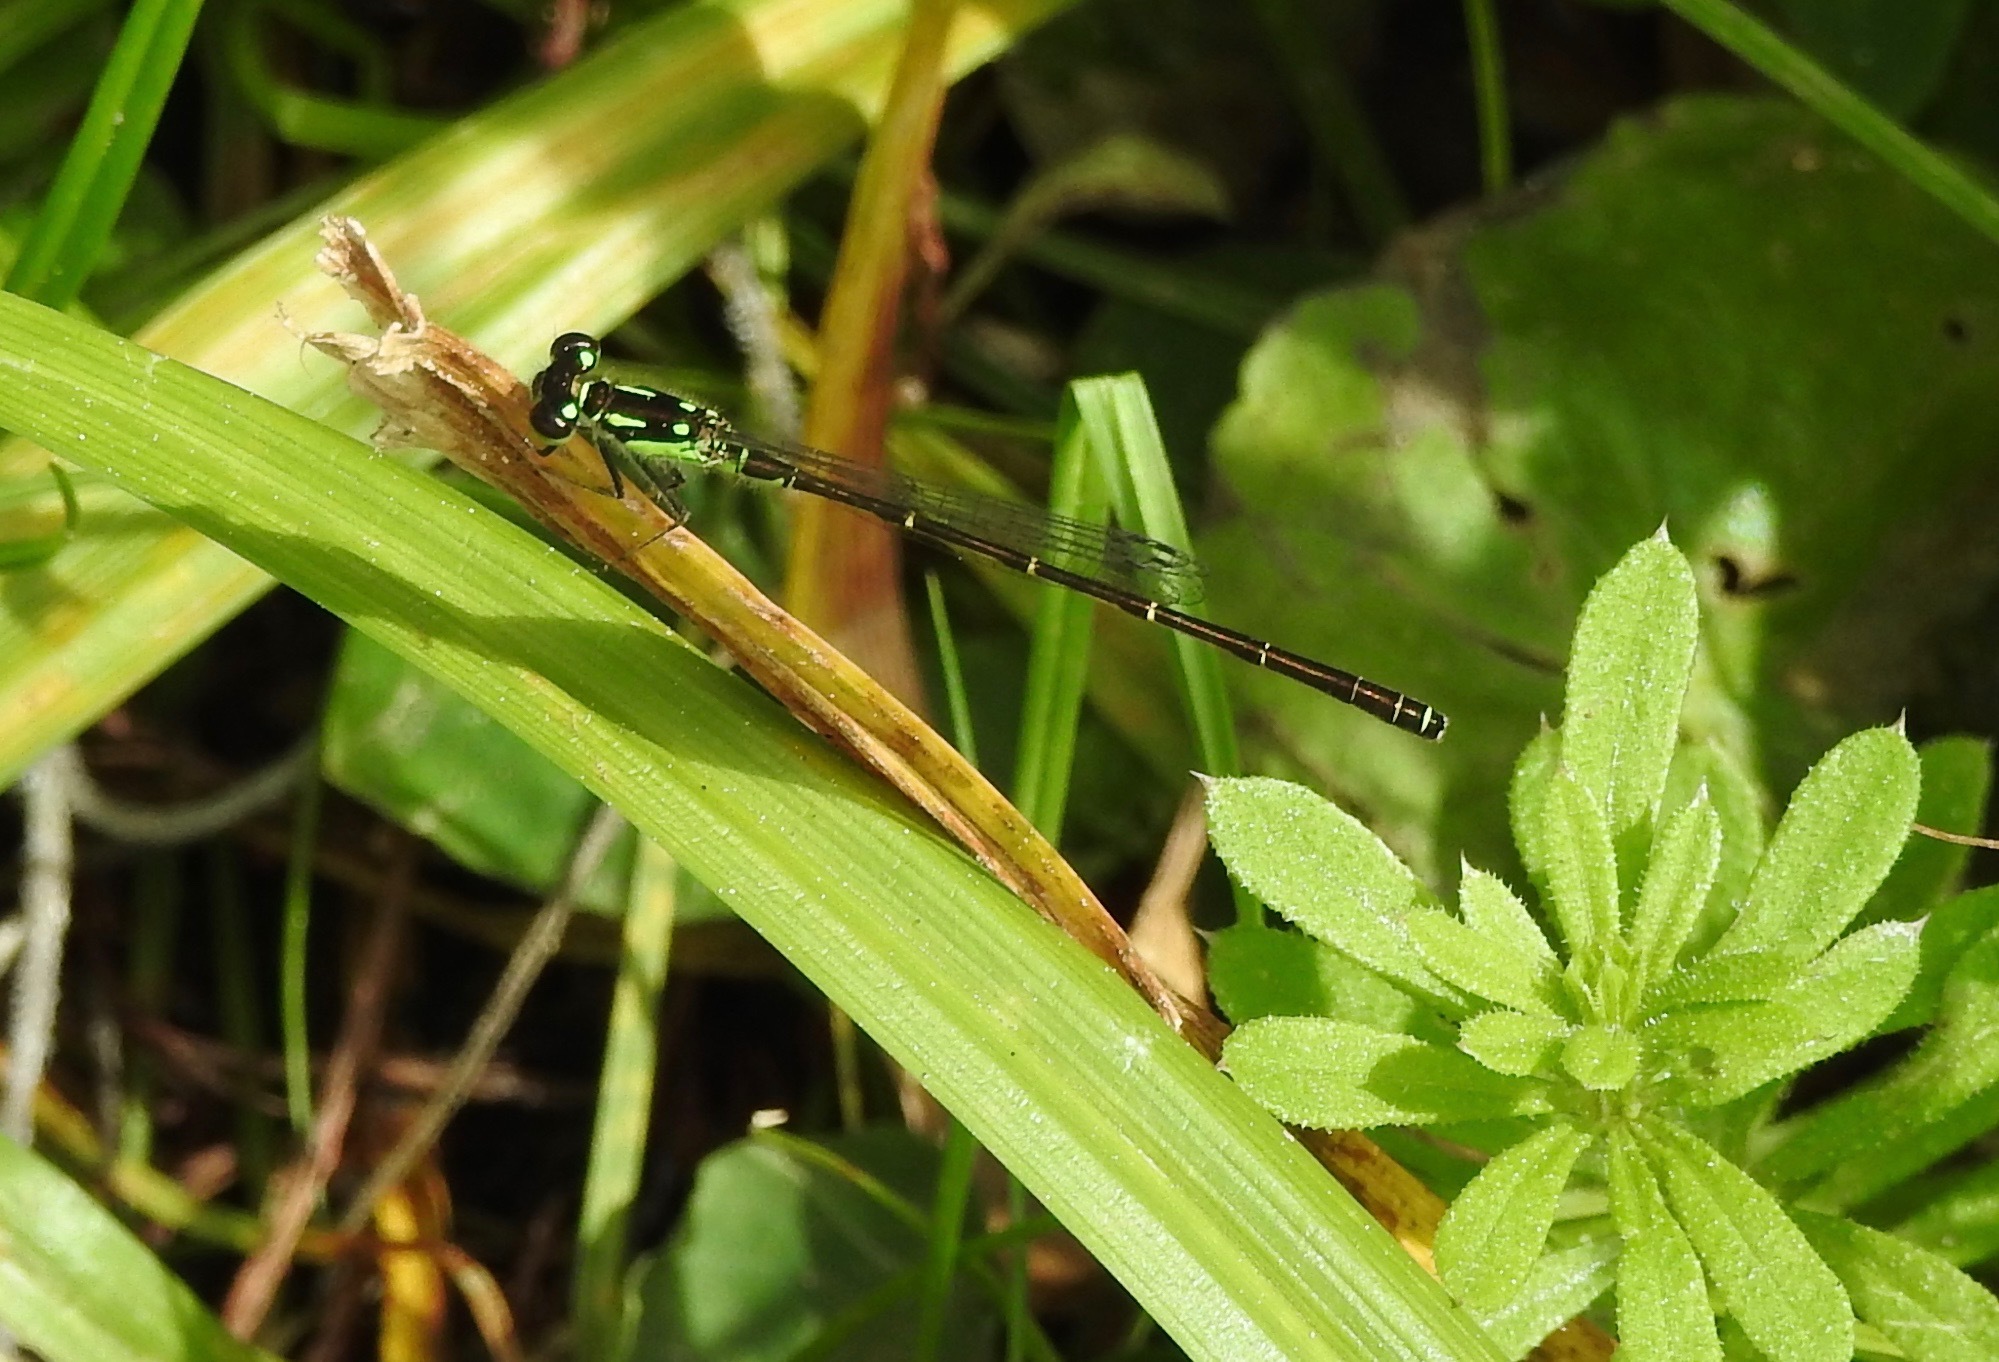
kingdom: Animalia
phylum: Arthropoda
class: Insecta
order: Odonata
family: Coenagrionidae
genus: Ischnura
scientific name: Ischnura posita
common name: Fragile forktail
